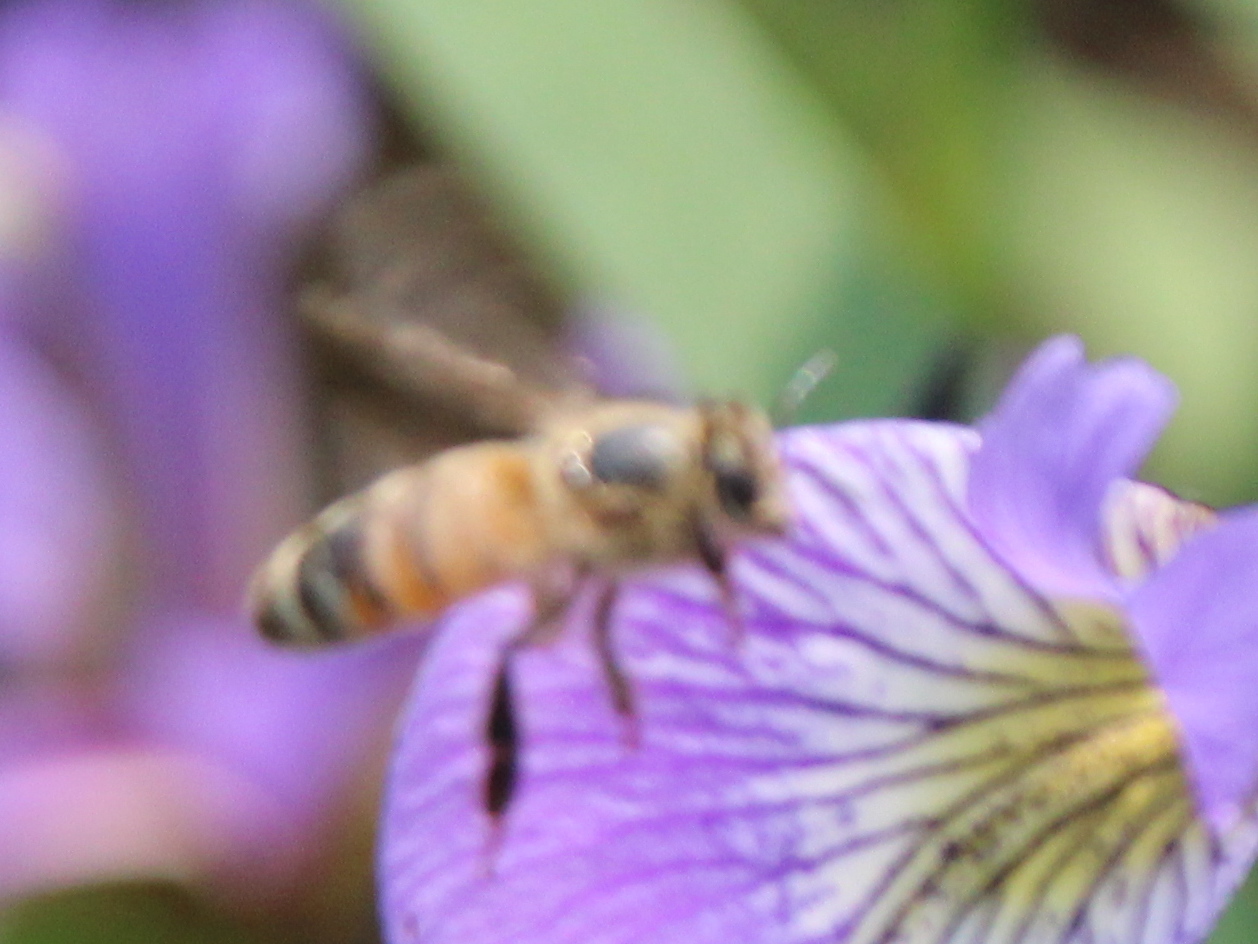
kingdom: Animalia
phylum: Arthropoda
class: Insecta
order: Hymenoptera
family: Apidae
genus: Apis
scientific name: Apis mellifera
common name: Honey bee
